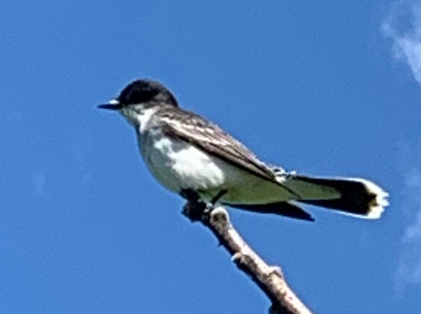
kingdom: Animalia
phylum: Chordata
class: Aves
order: Passeriformes
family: Tyrannidae
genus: Tyrannus
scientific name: Tyrannus tyrannus
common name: Eastern kingbird
